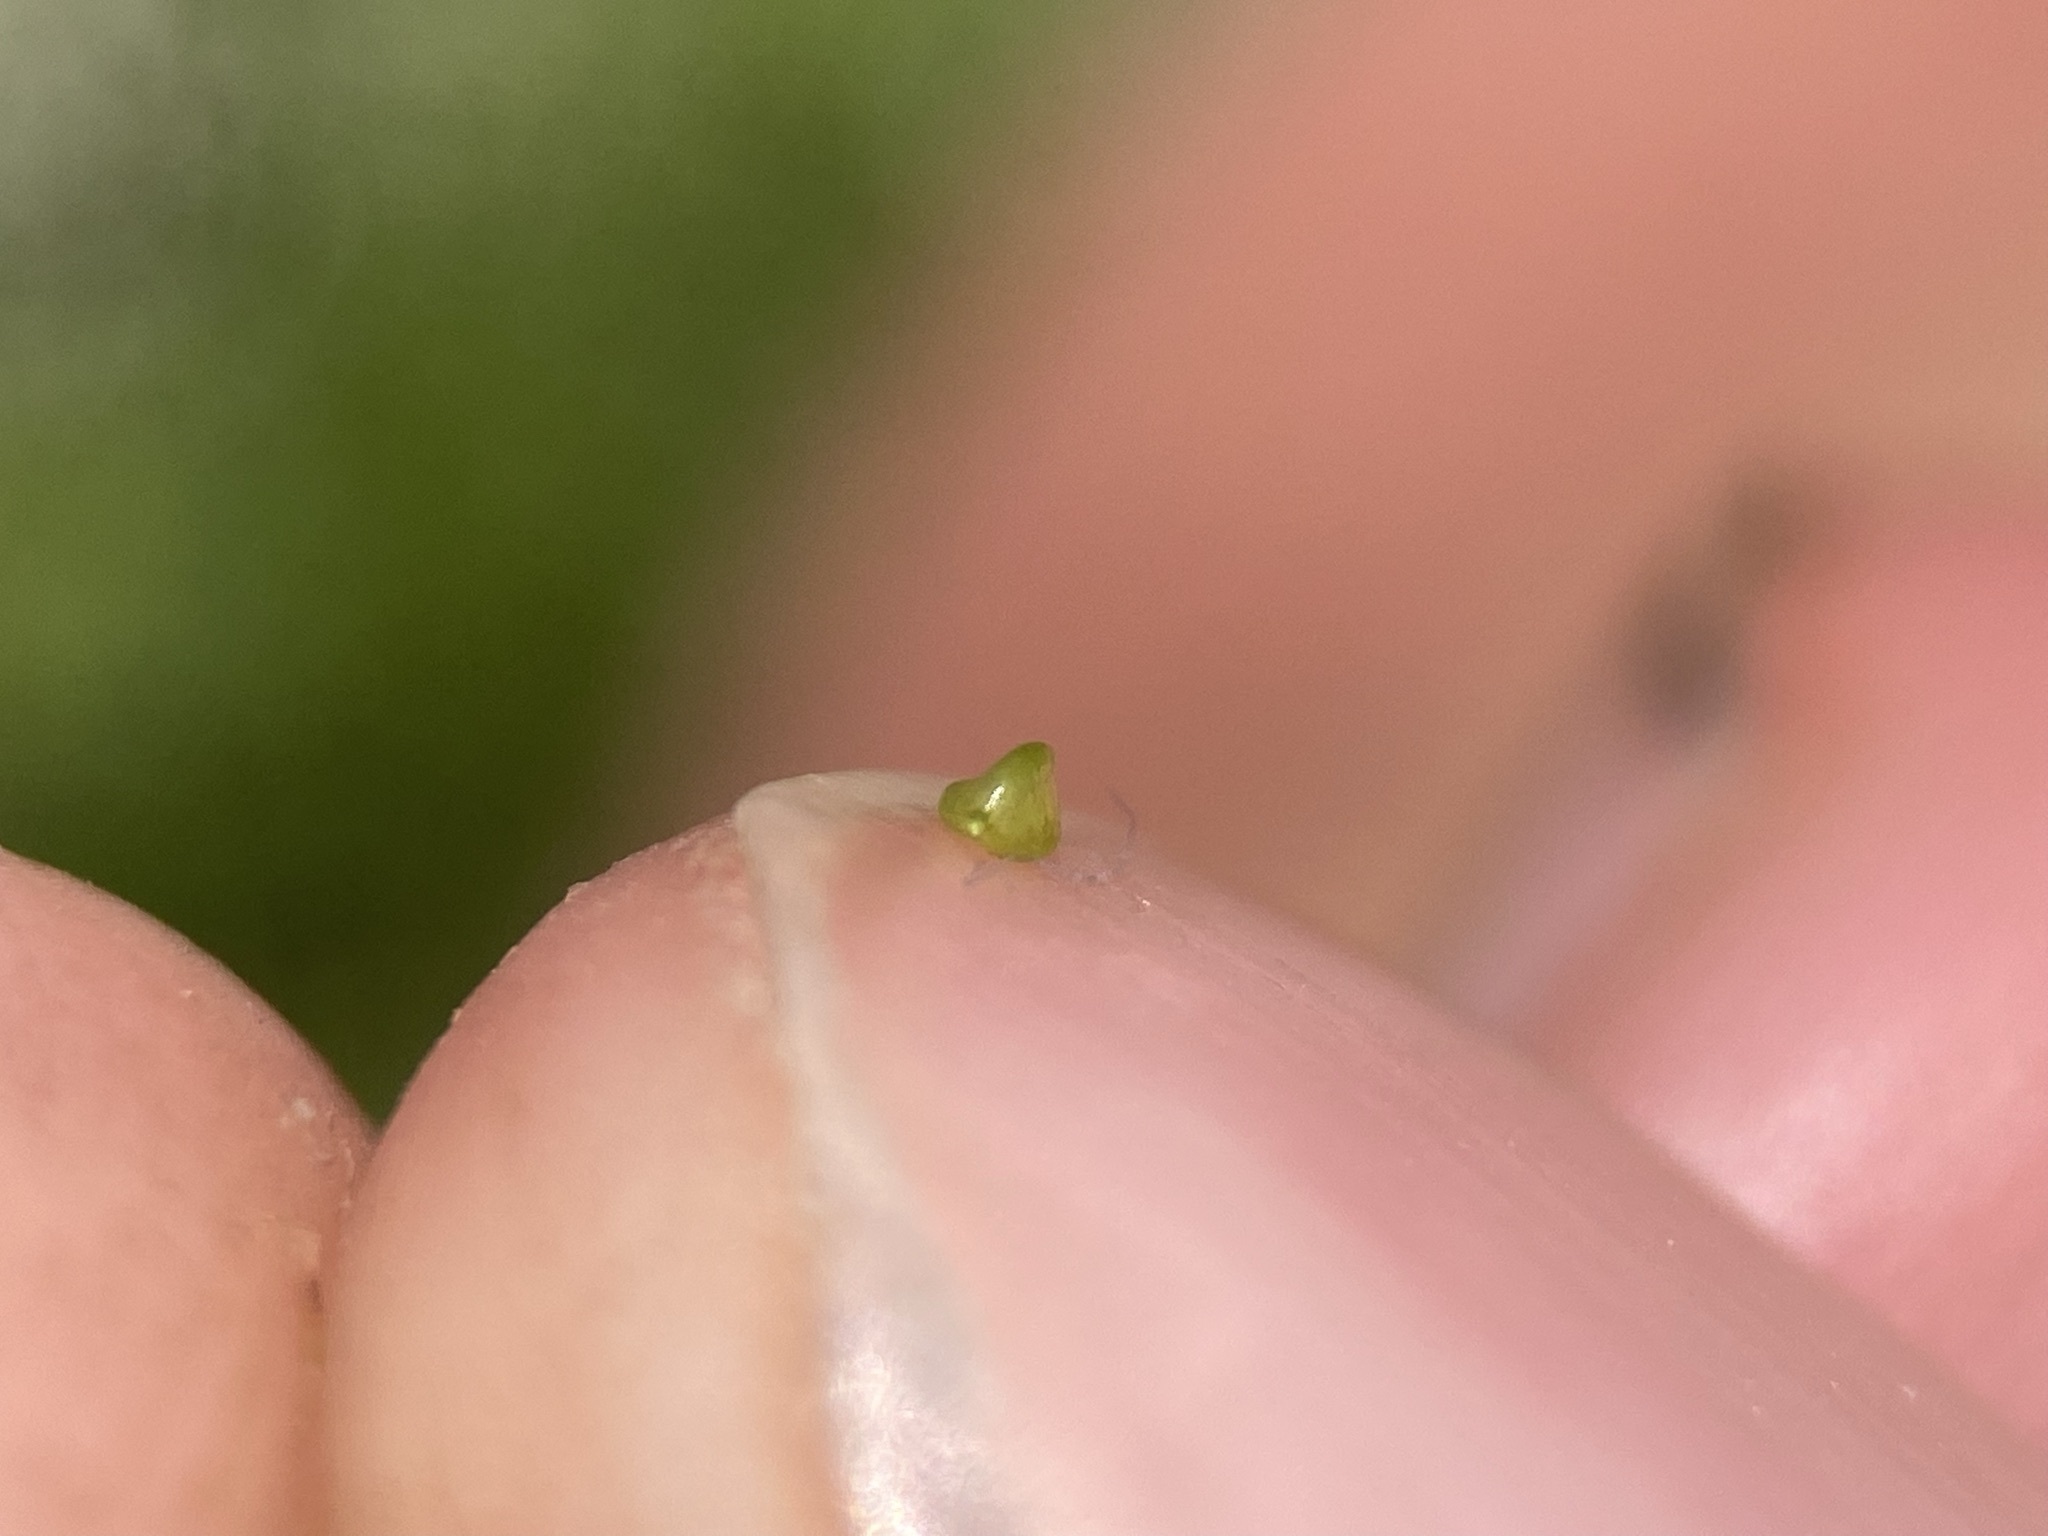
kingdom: Plantae
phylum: Tracheophyta
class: Liliopsida
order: Poales
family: Cyperaceae
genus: Carex
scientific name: Carex capillaris
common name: Hair sedge
